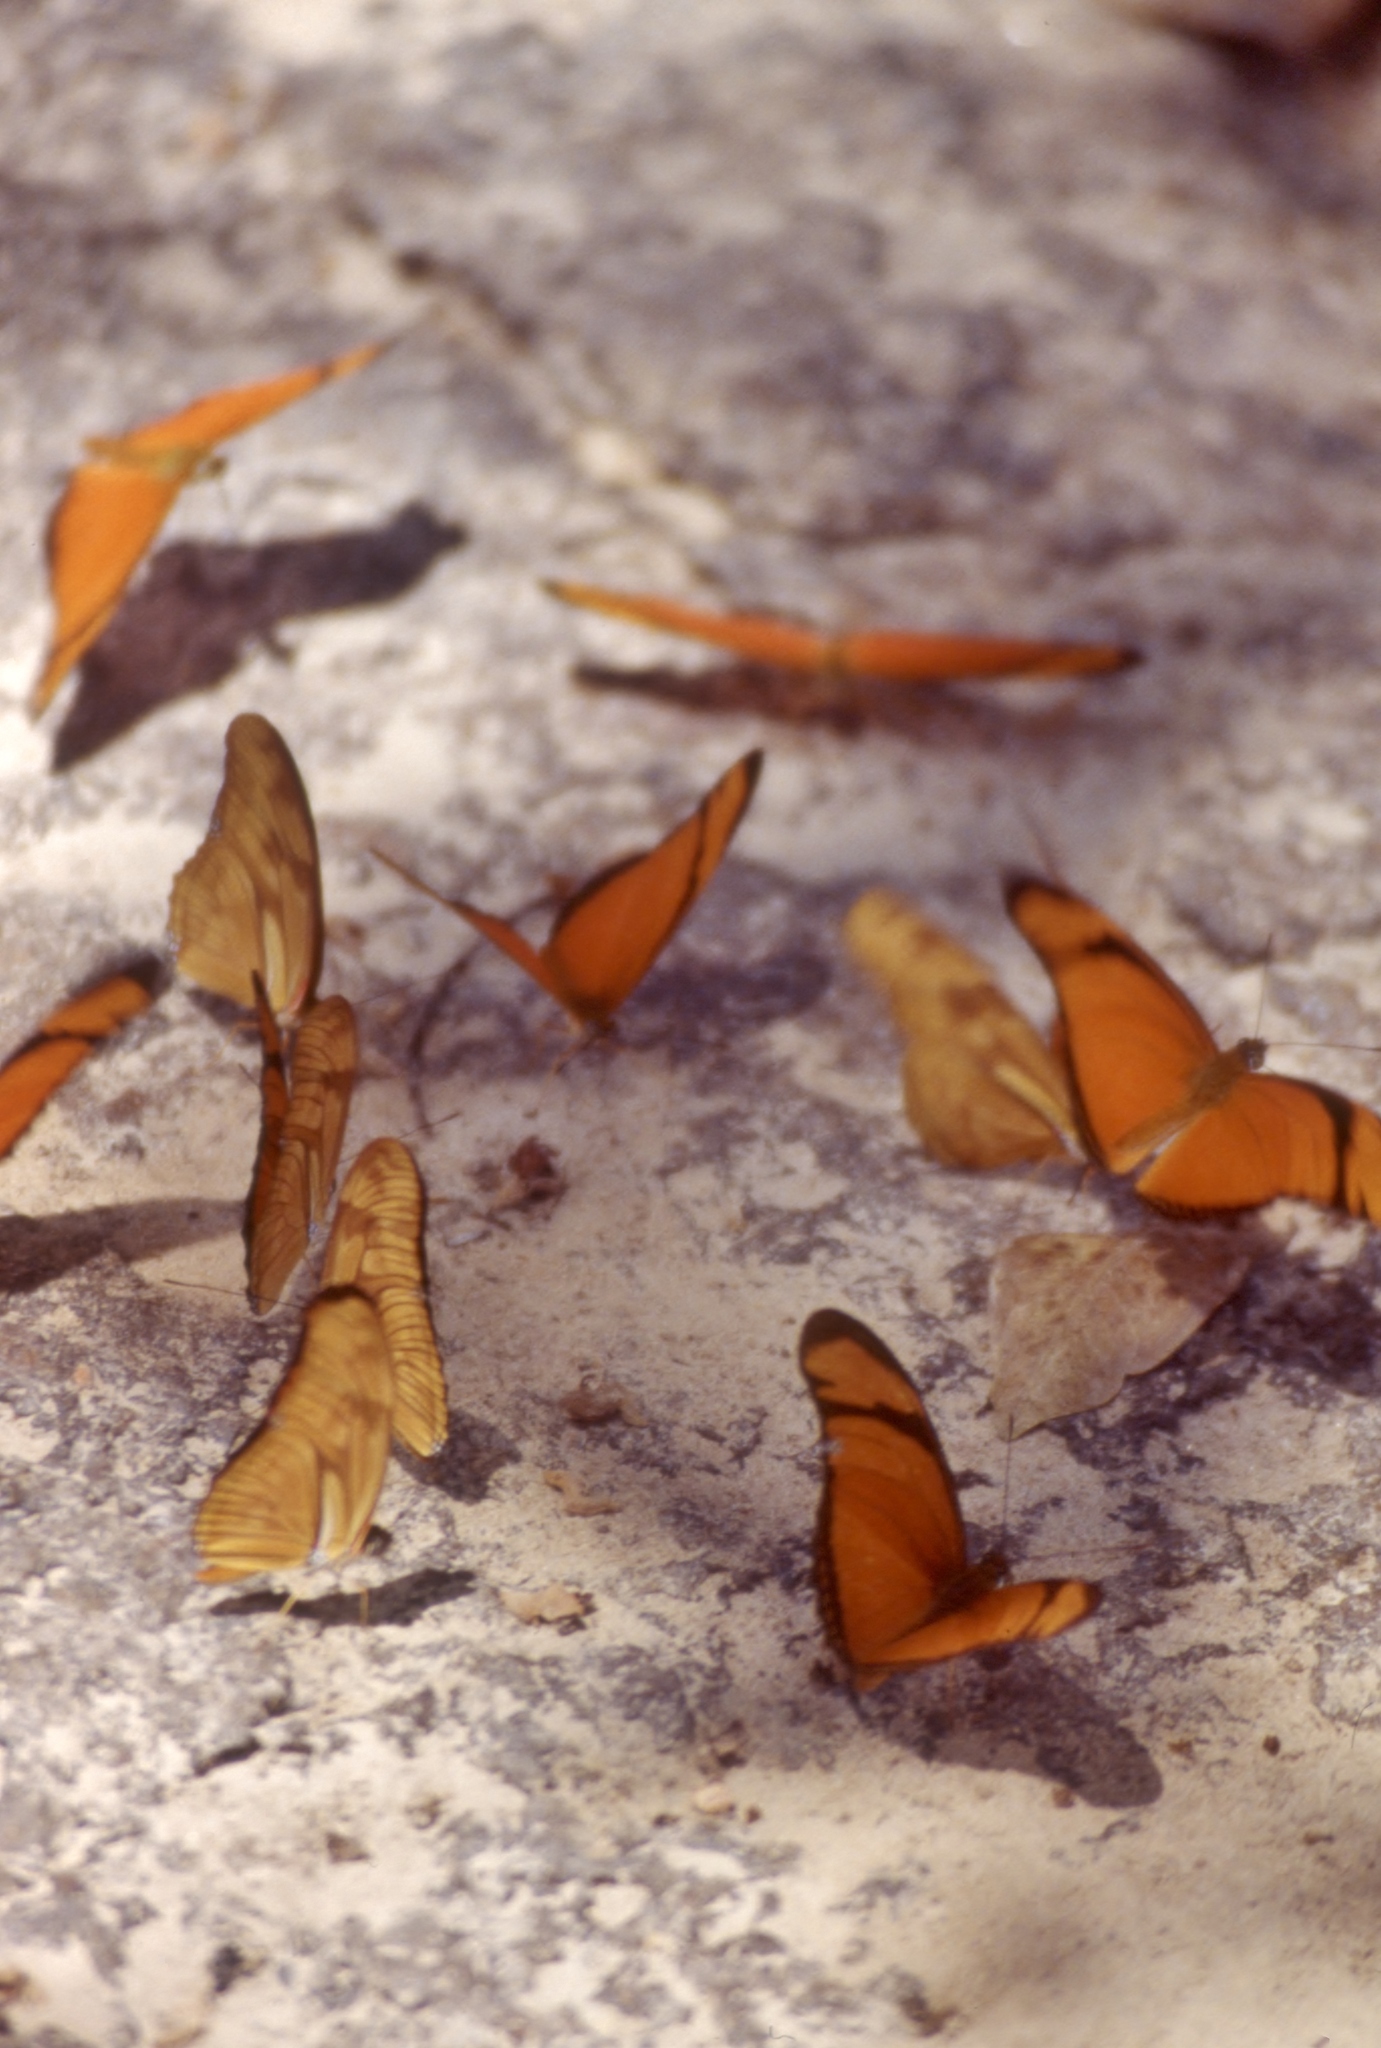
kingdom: Animalia
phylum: Arthropoda
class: Insecta
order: Lepidoptera
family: Nymphalidae
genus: Dryas
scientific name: Dryas iulia
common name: Flambeau
